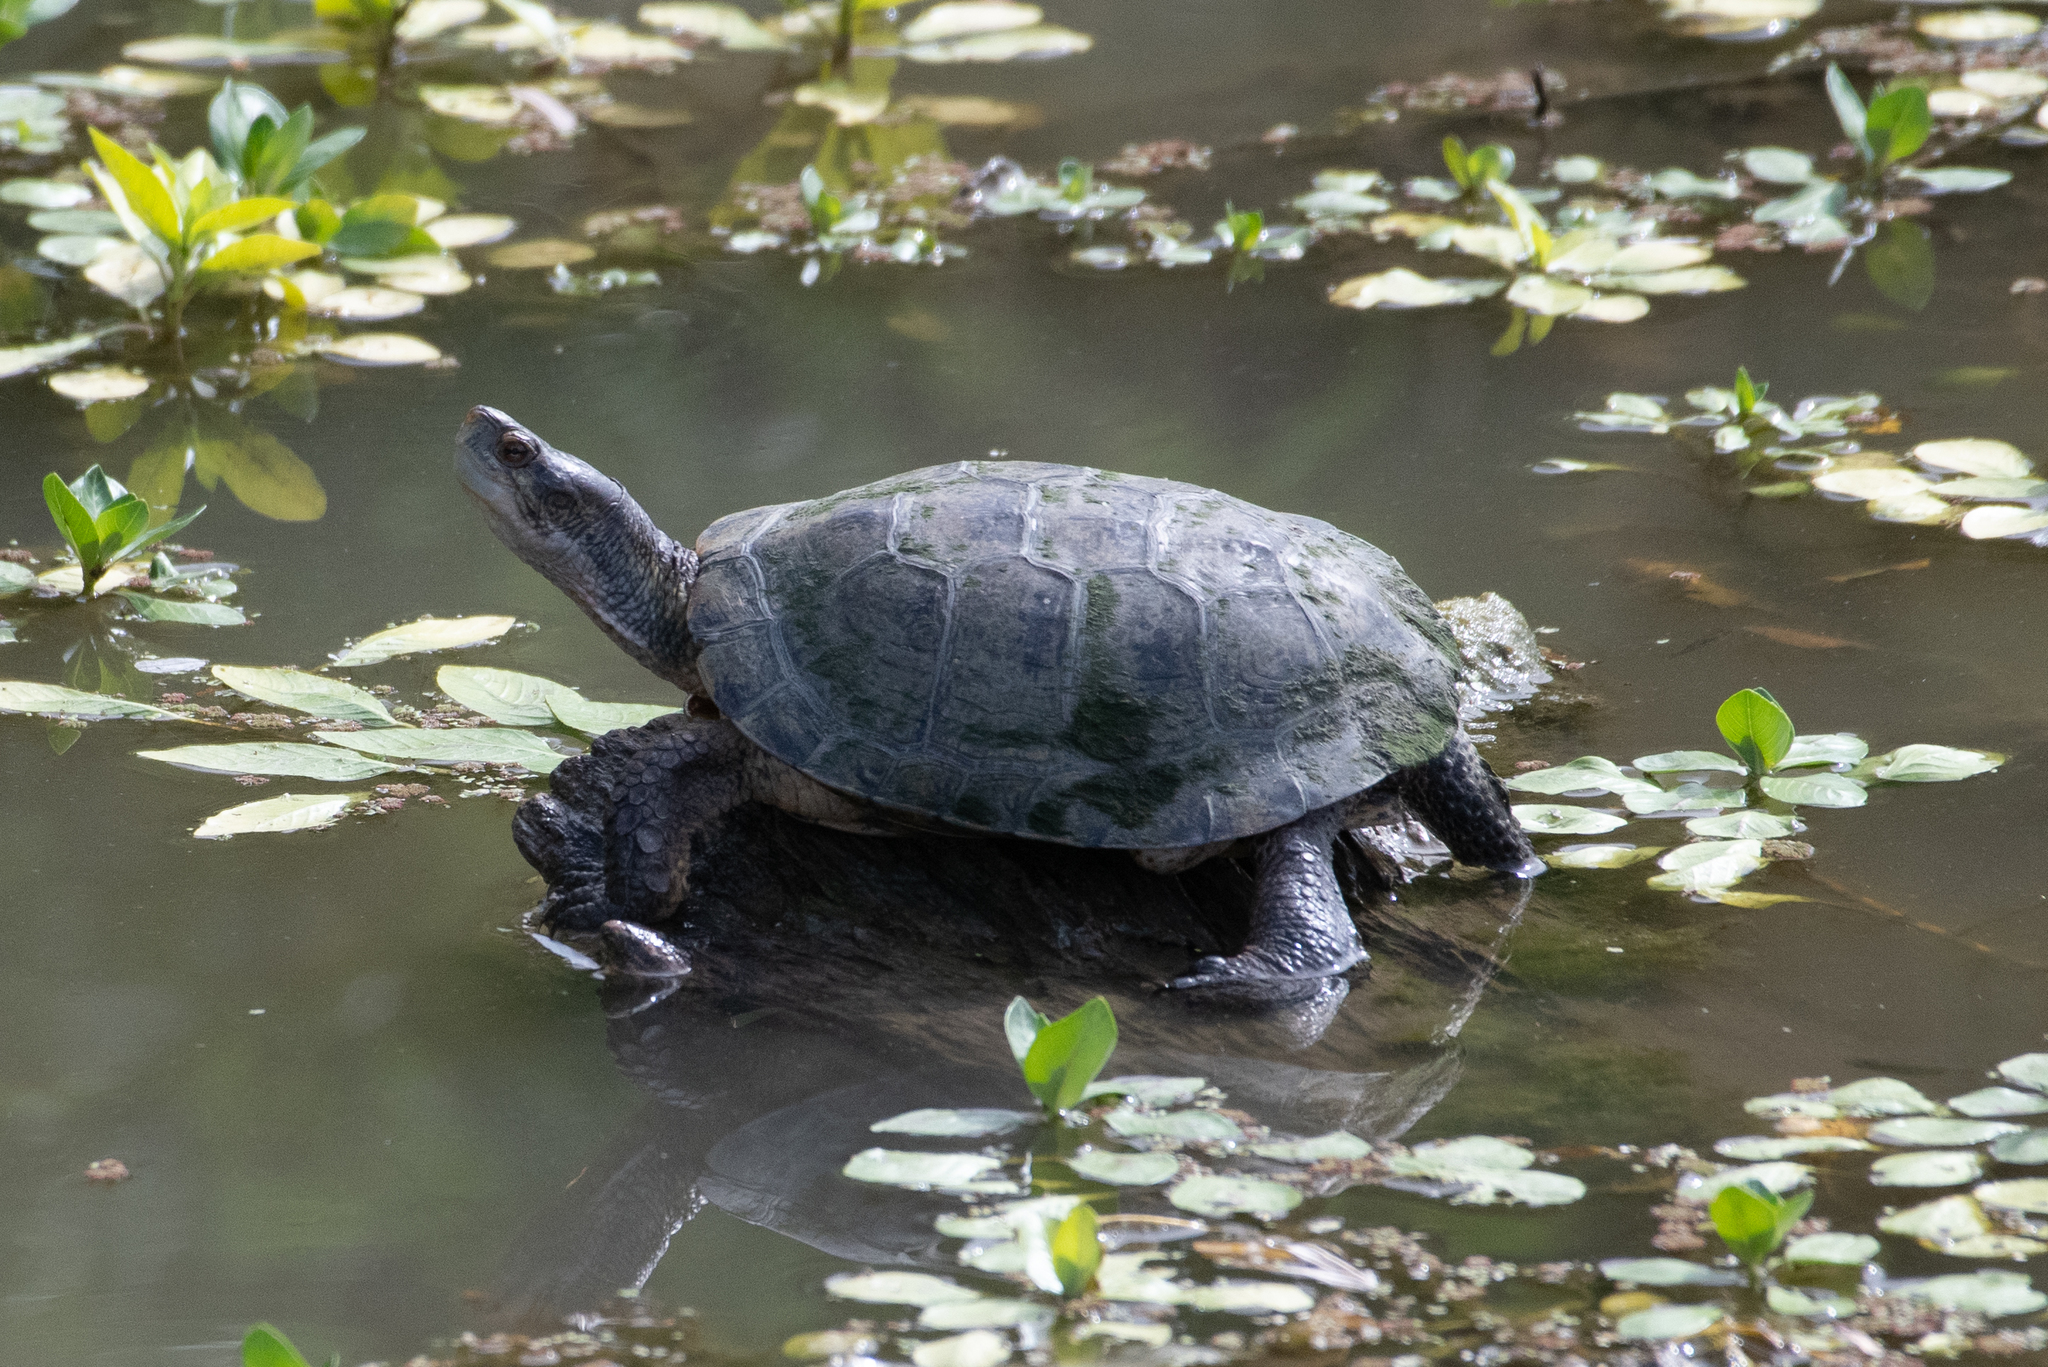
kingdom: Animalia
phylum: Chordata
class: Testudines
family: Emydidae
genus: Actinemys
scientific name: Actinemys marmorata
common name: Western pond turtle
